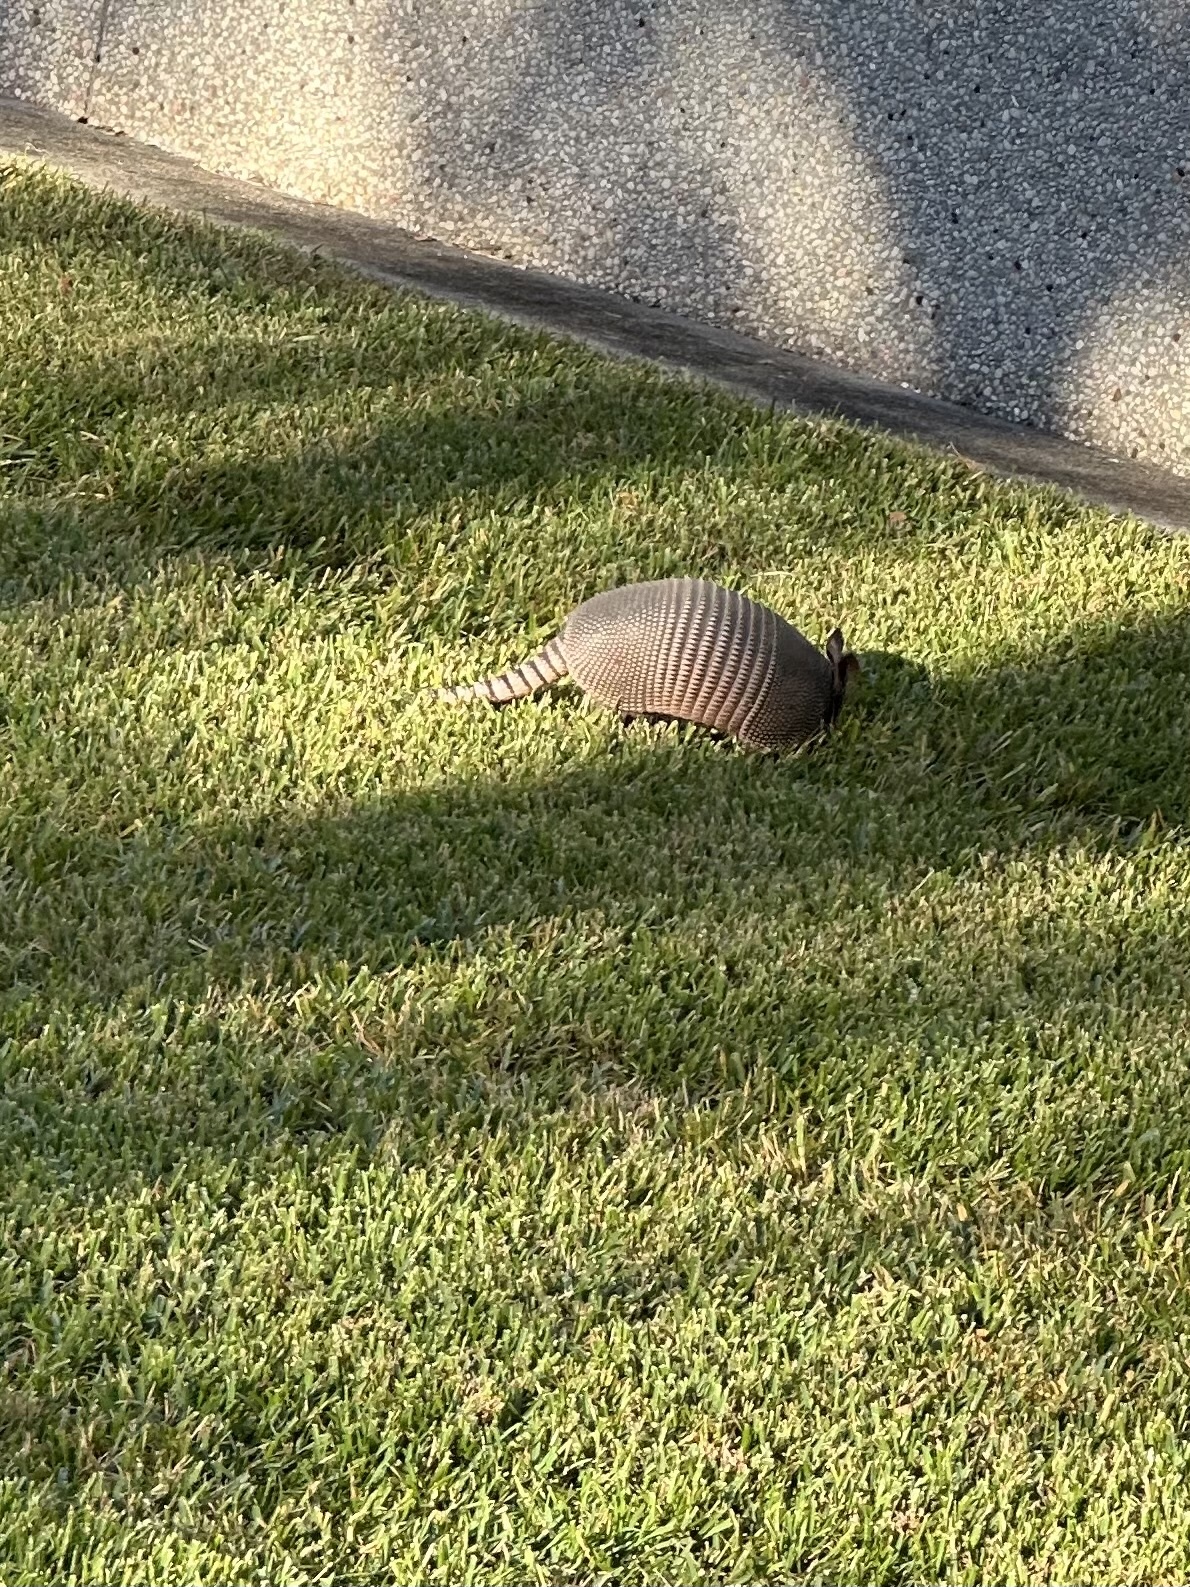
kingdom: Animalia
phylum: Chordata
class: Mammalia
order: Cingulata
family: Dasypodidae
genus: Dasypus
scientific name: Dasypus novemcinctus
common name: Nine-banded armadillo
